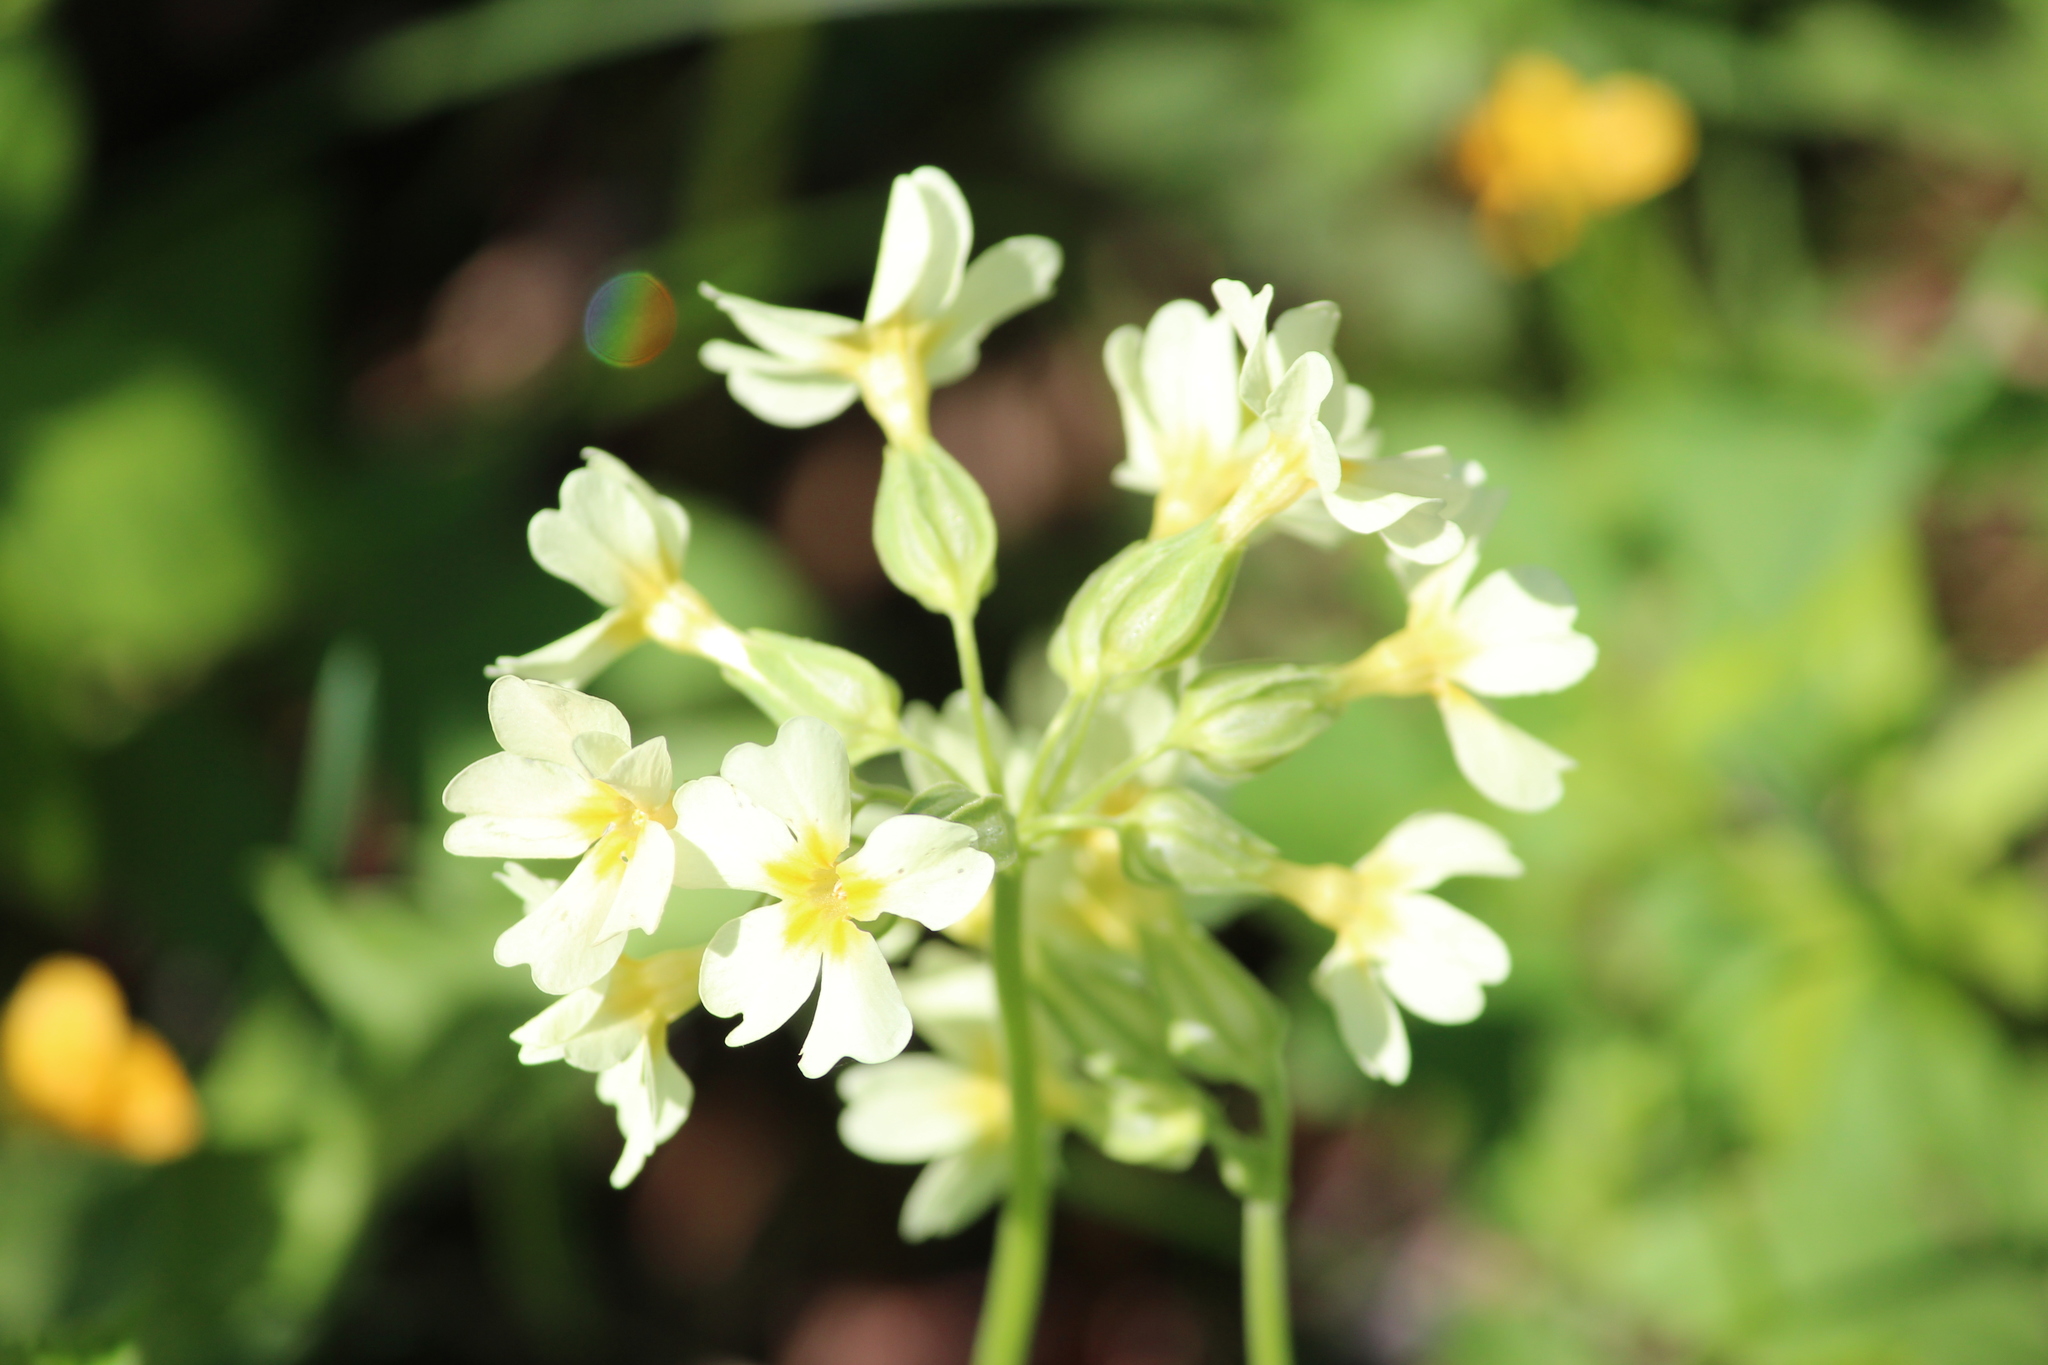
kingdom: Plantae
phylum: Tracheophyta
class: Magnoliopsida
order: Ericales
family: Primulaceae
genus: Primula
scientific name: Primula elatior
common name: Oxlip
